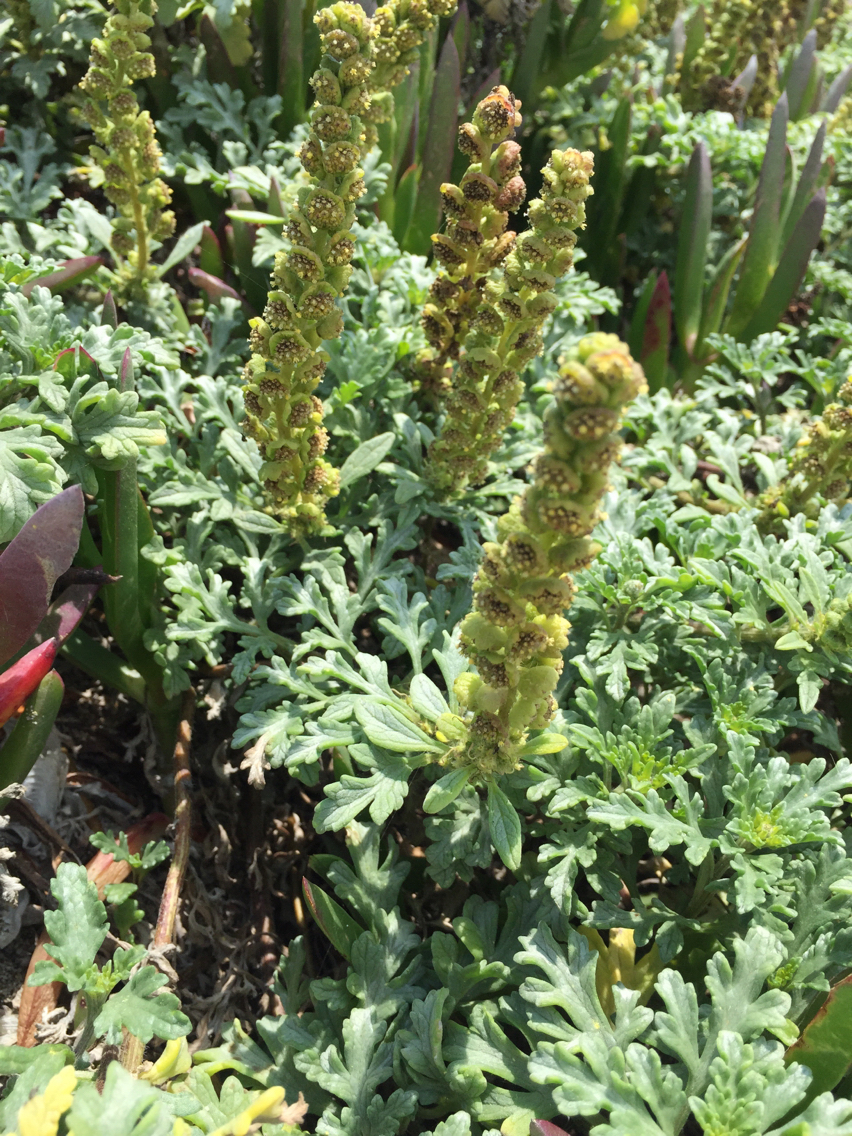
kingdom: Plantae
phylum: Tracheophyta
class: Magnoliopsida
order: Asterales
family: Asteraceae
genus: Ambrosia
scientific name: Ambrosia chamissonis
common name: Beachbur
